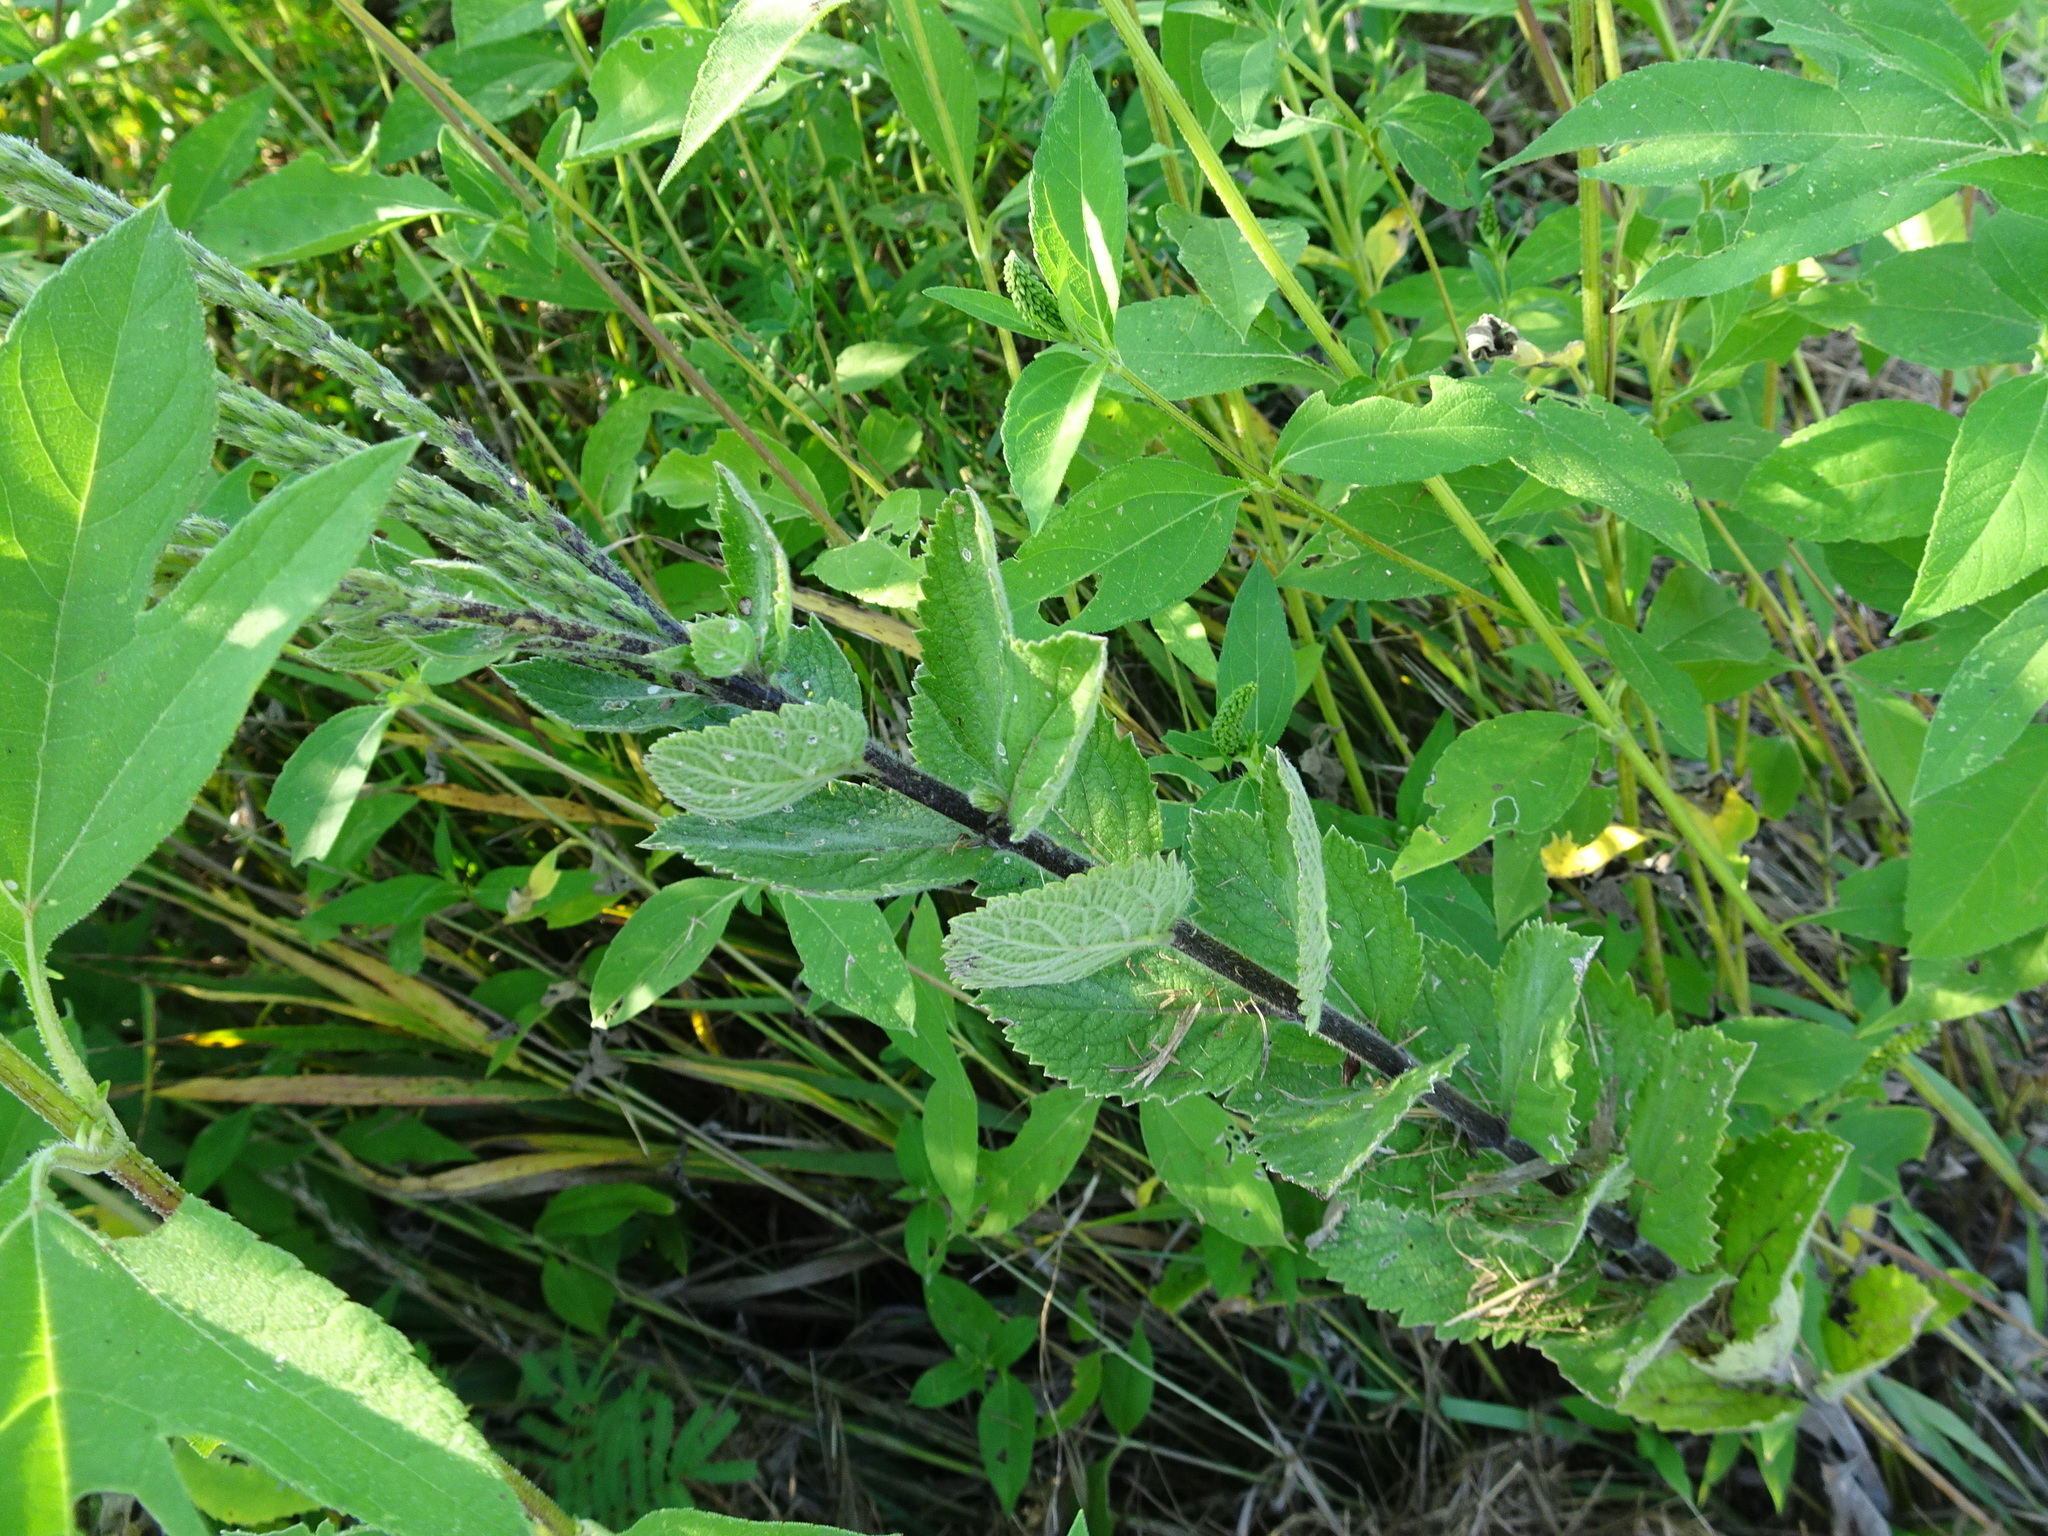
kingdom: Plantae
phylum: Tracheophyta
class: Magnoliopsida
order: Lamiales
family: Verbenaceae
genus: Verbena
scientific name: Verbena stricta
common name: Hoary vervain
